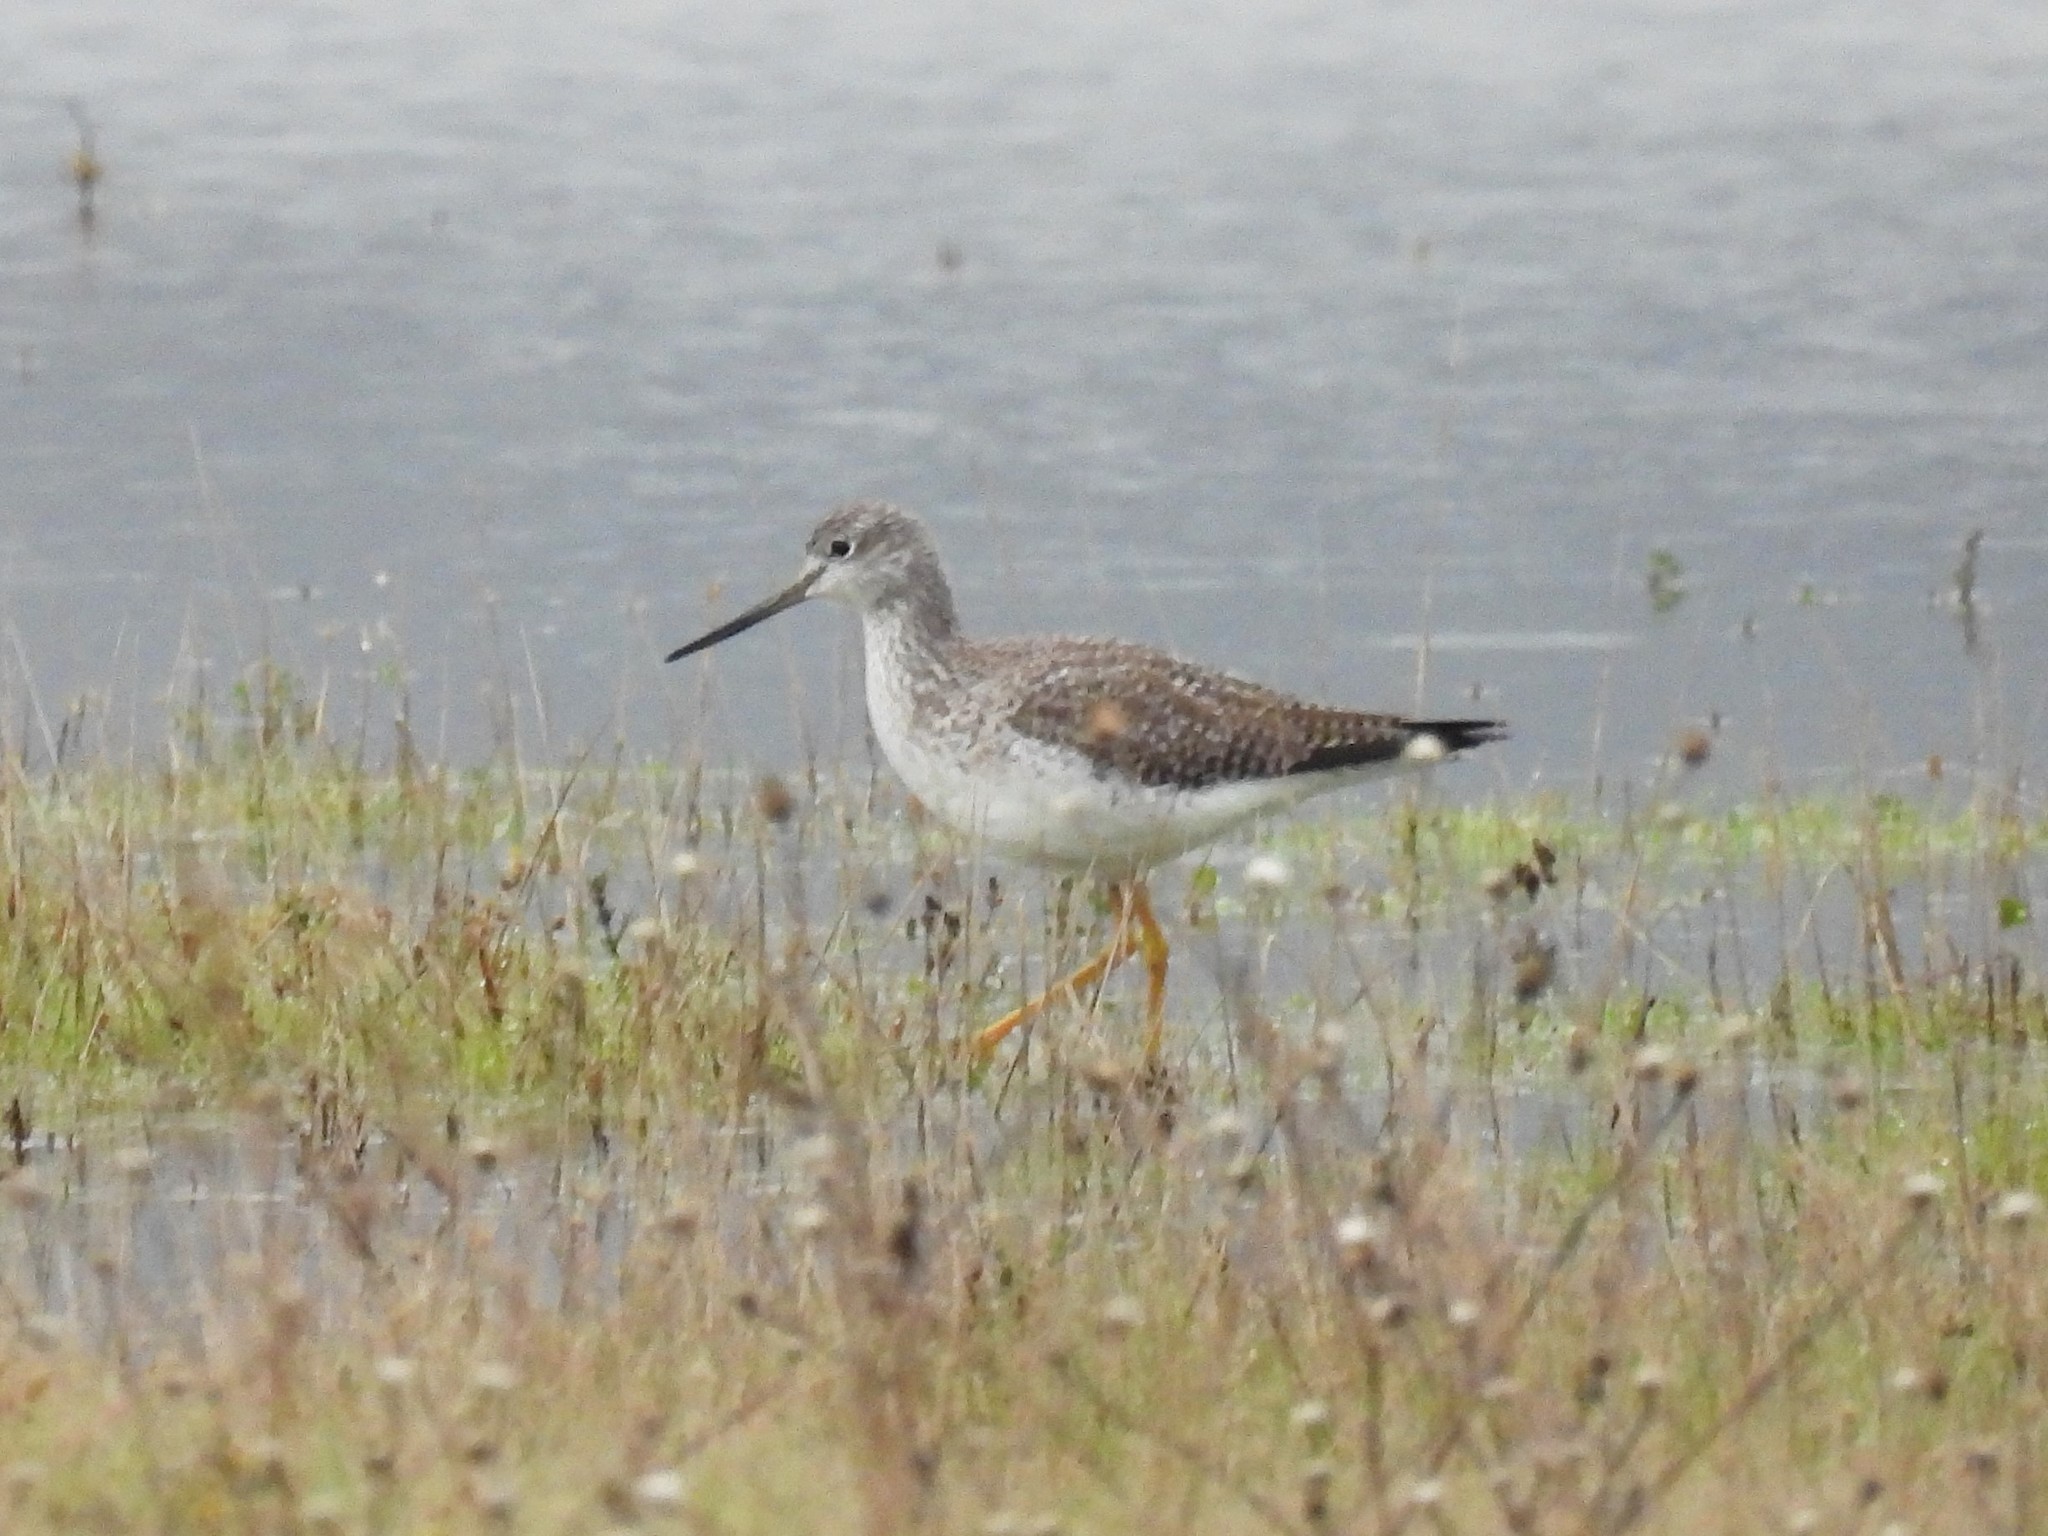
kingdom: Animalia
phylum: Chordata
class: Aves
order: Charadriiformes
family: Scolopacidae
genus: Tringa
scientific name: Tringa melanoleuca
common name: Greater yellowlegs
